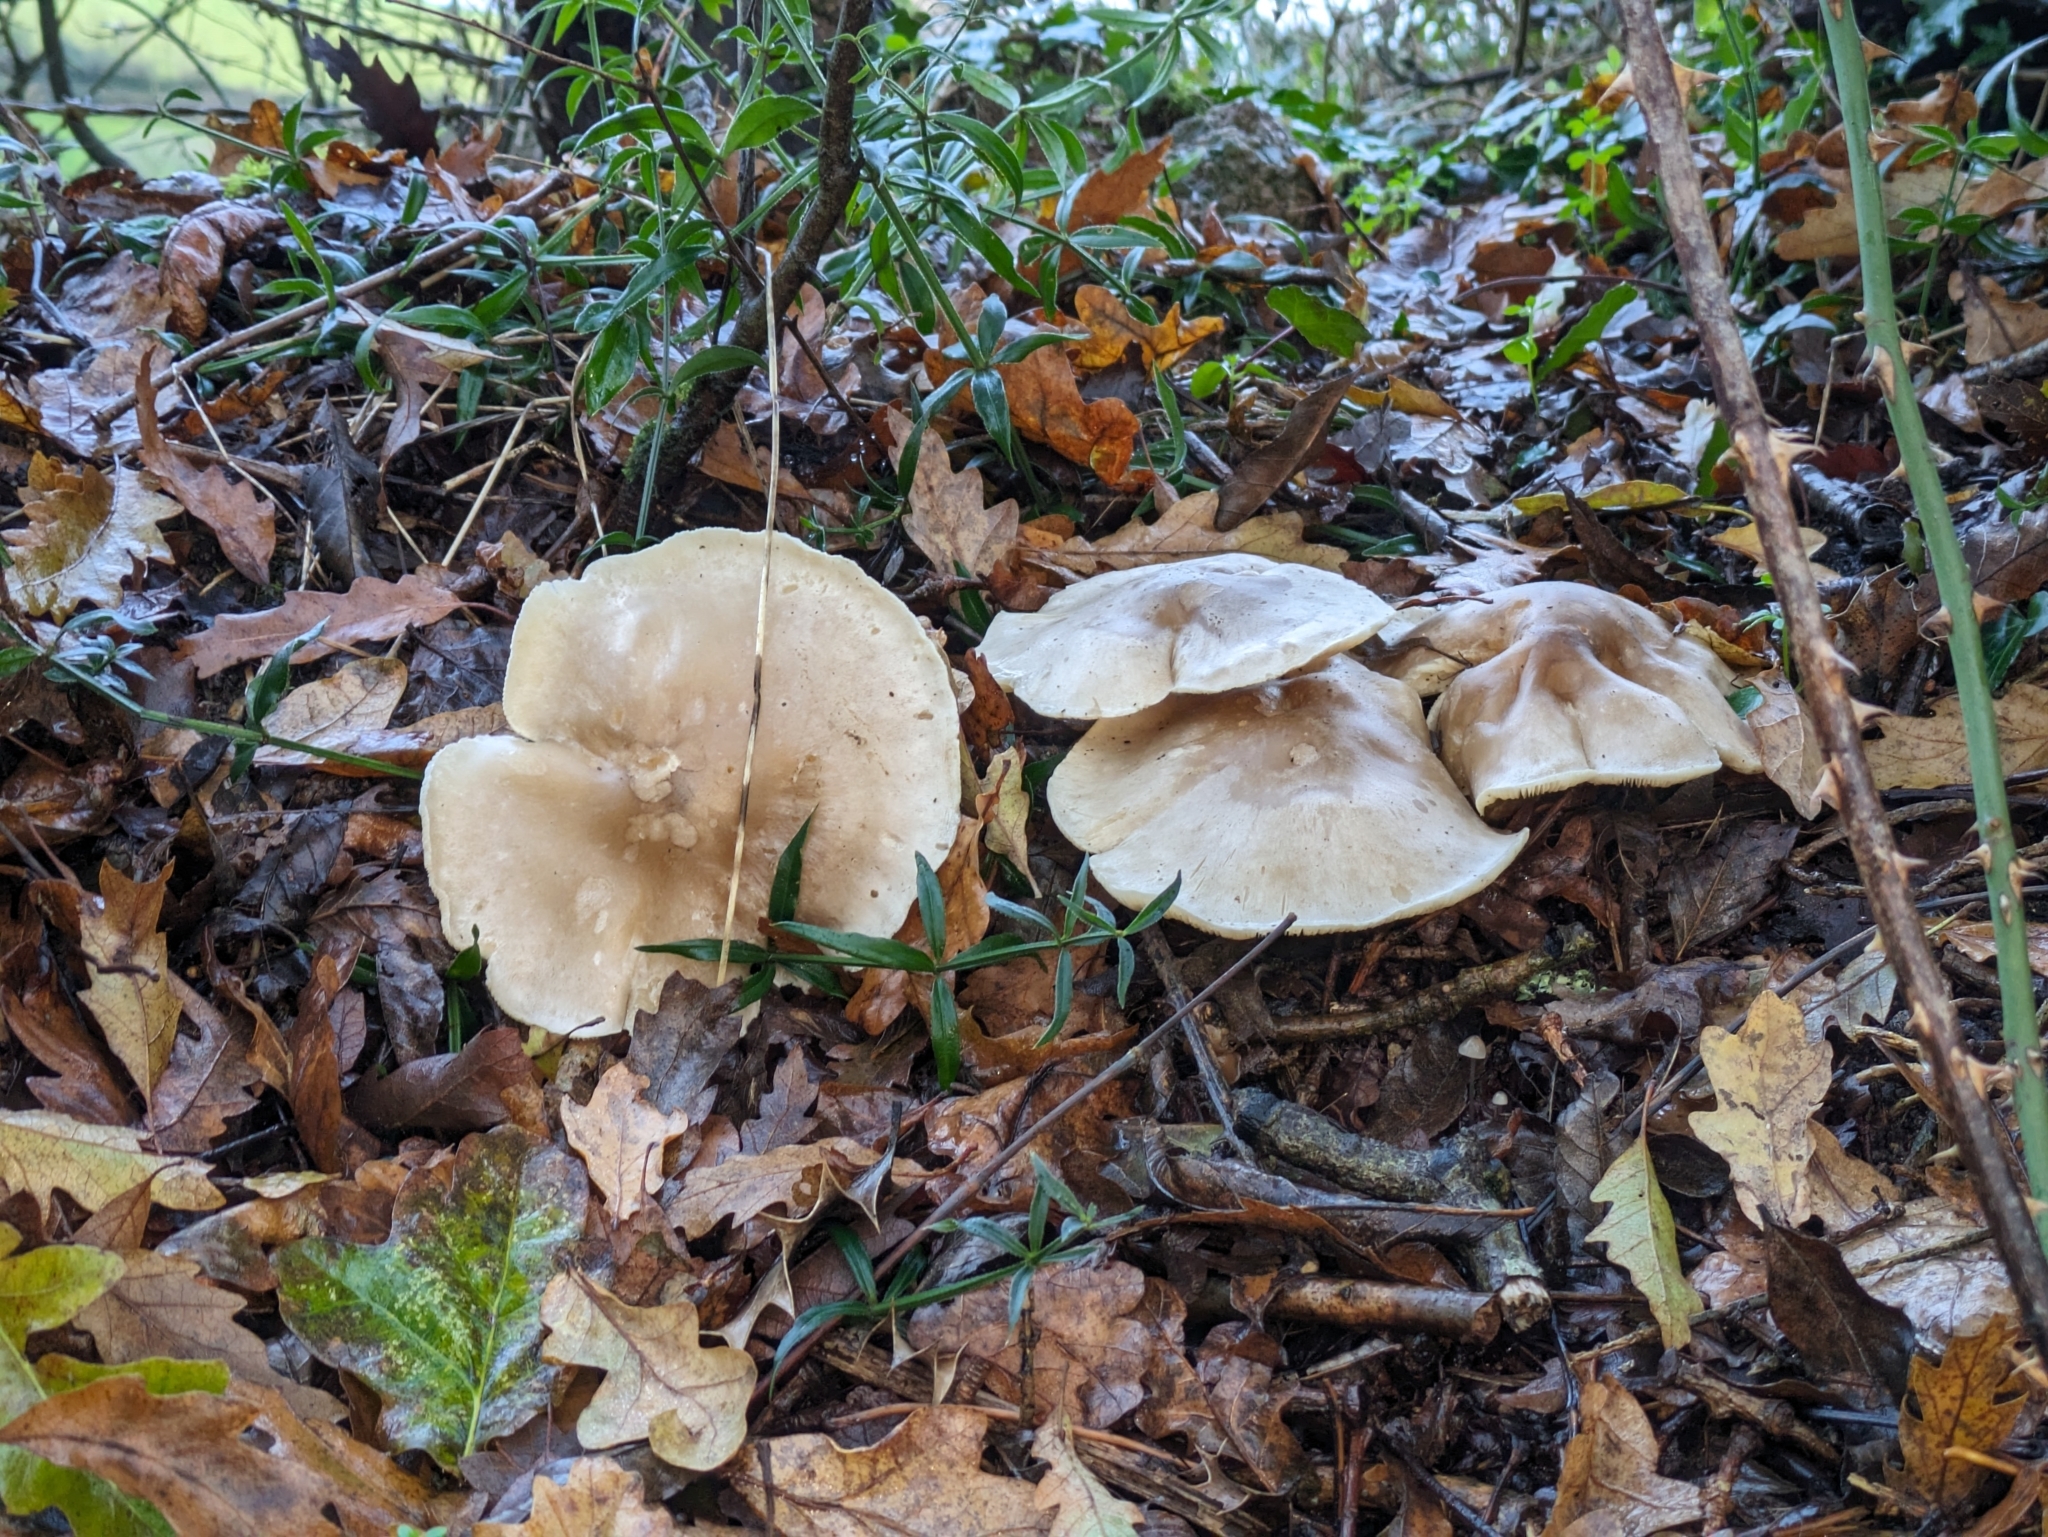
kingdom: Fungi
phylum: Basidiomycota
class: Agaricomycetes
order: Agaricales
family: Tricholomataceae
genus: Clitocybe
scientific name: Clitocybe nebularis
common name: Clouded agaric
